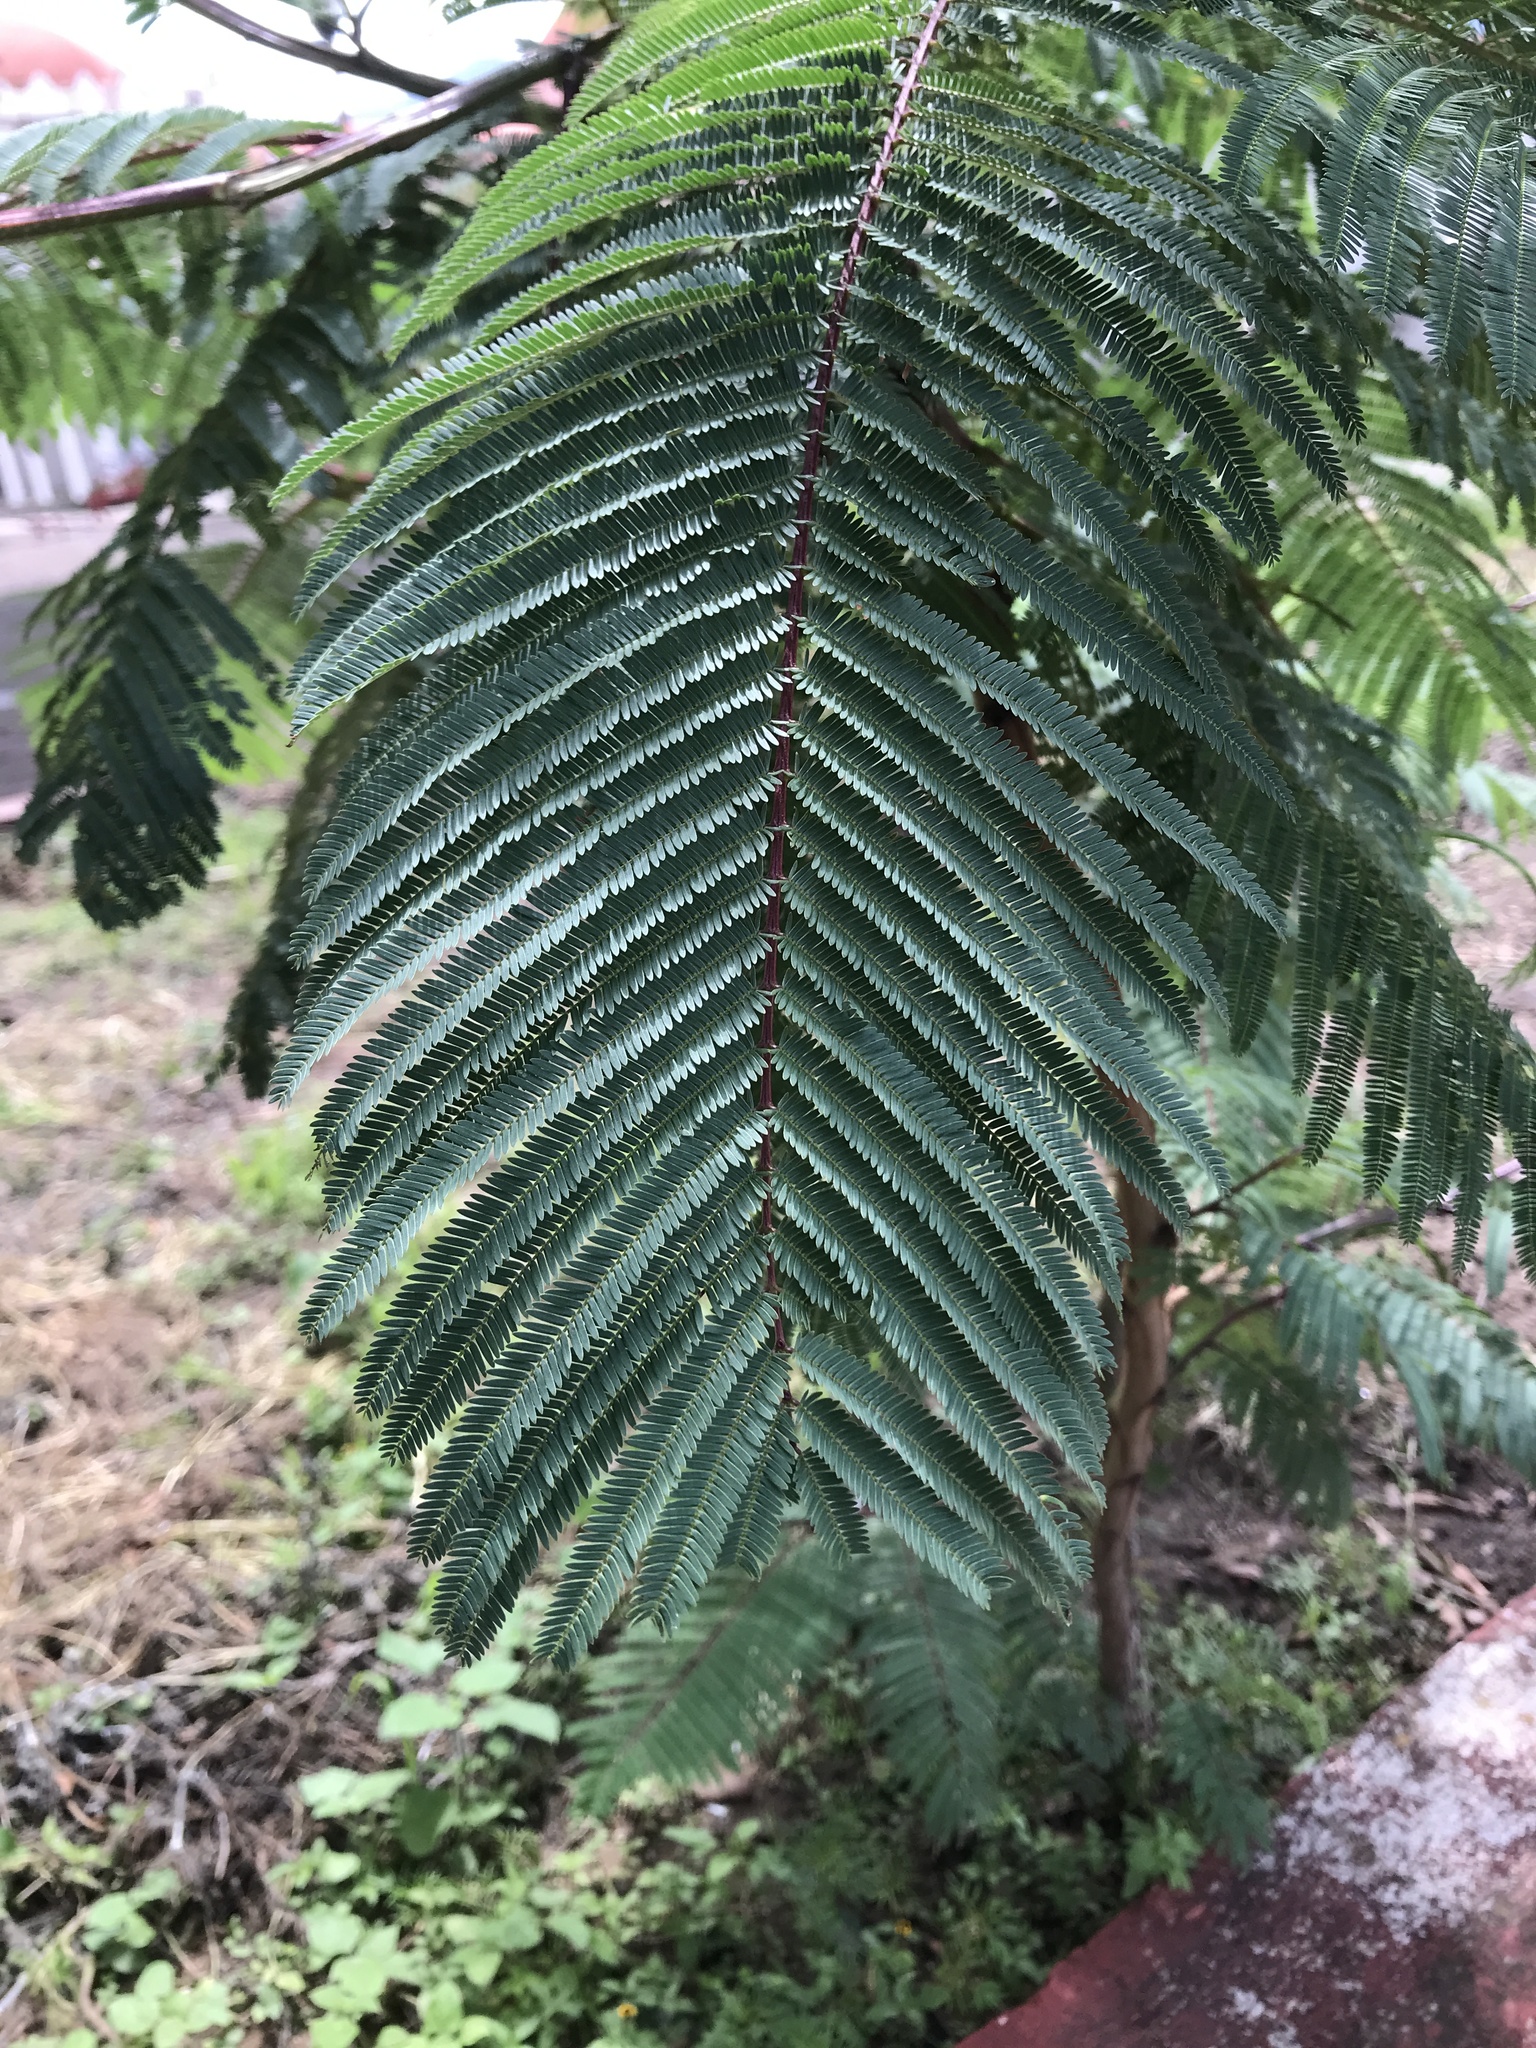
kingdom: Plantae
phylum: Tracheophyta
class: Magnoliopsida
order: Fabales
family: Fabaceae
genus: Vachellia
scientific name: Vachellia pennatula
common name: Fern-leaf acacia
